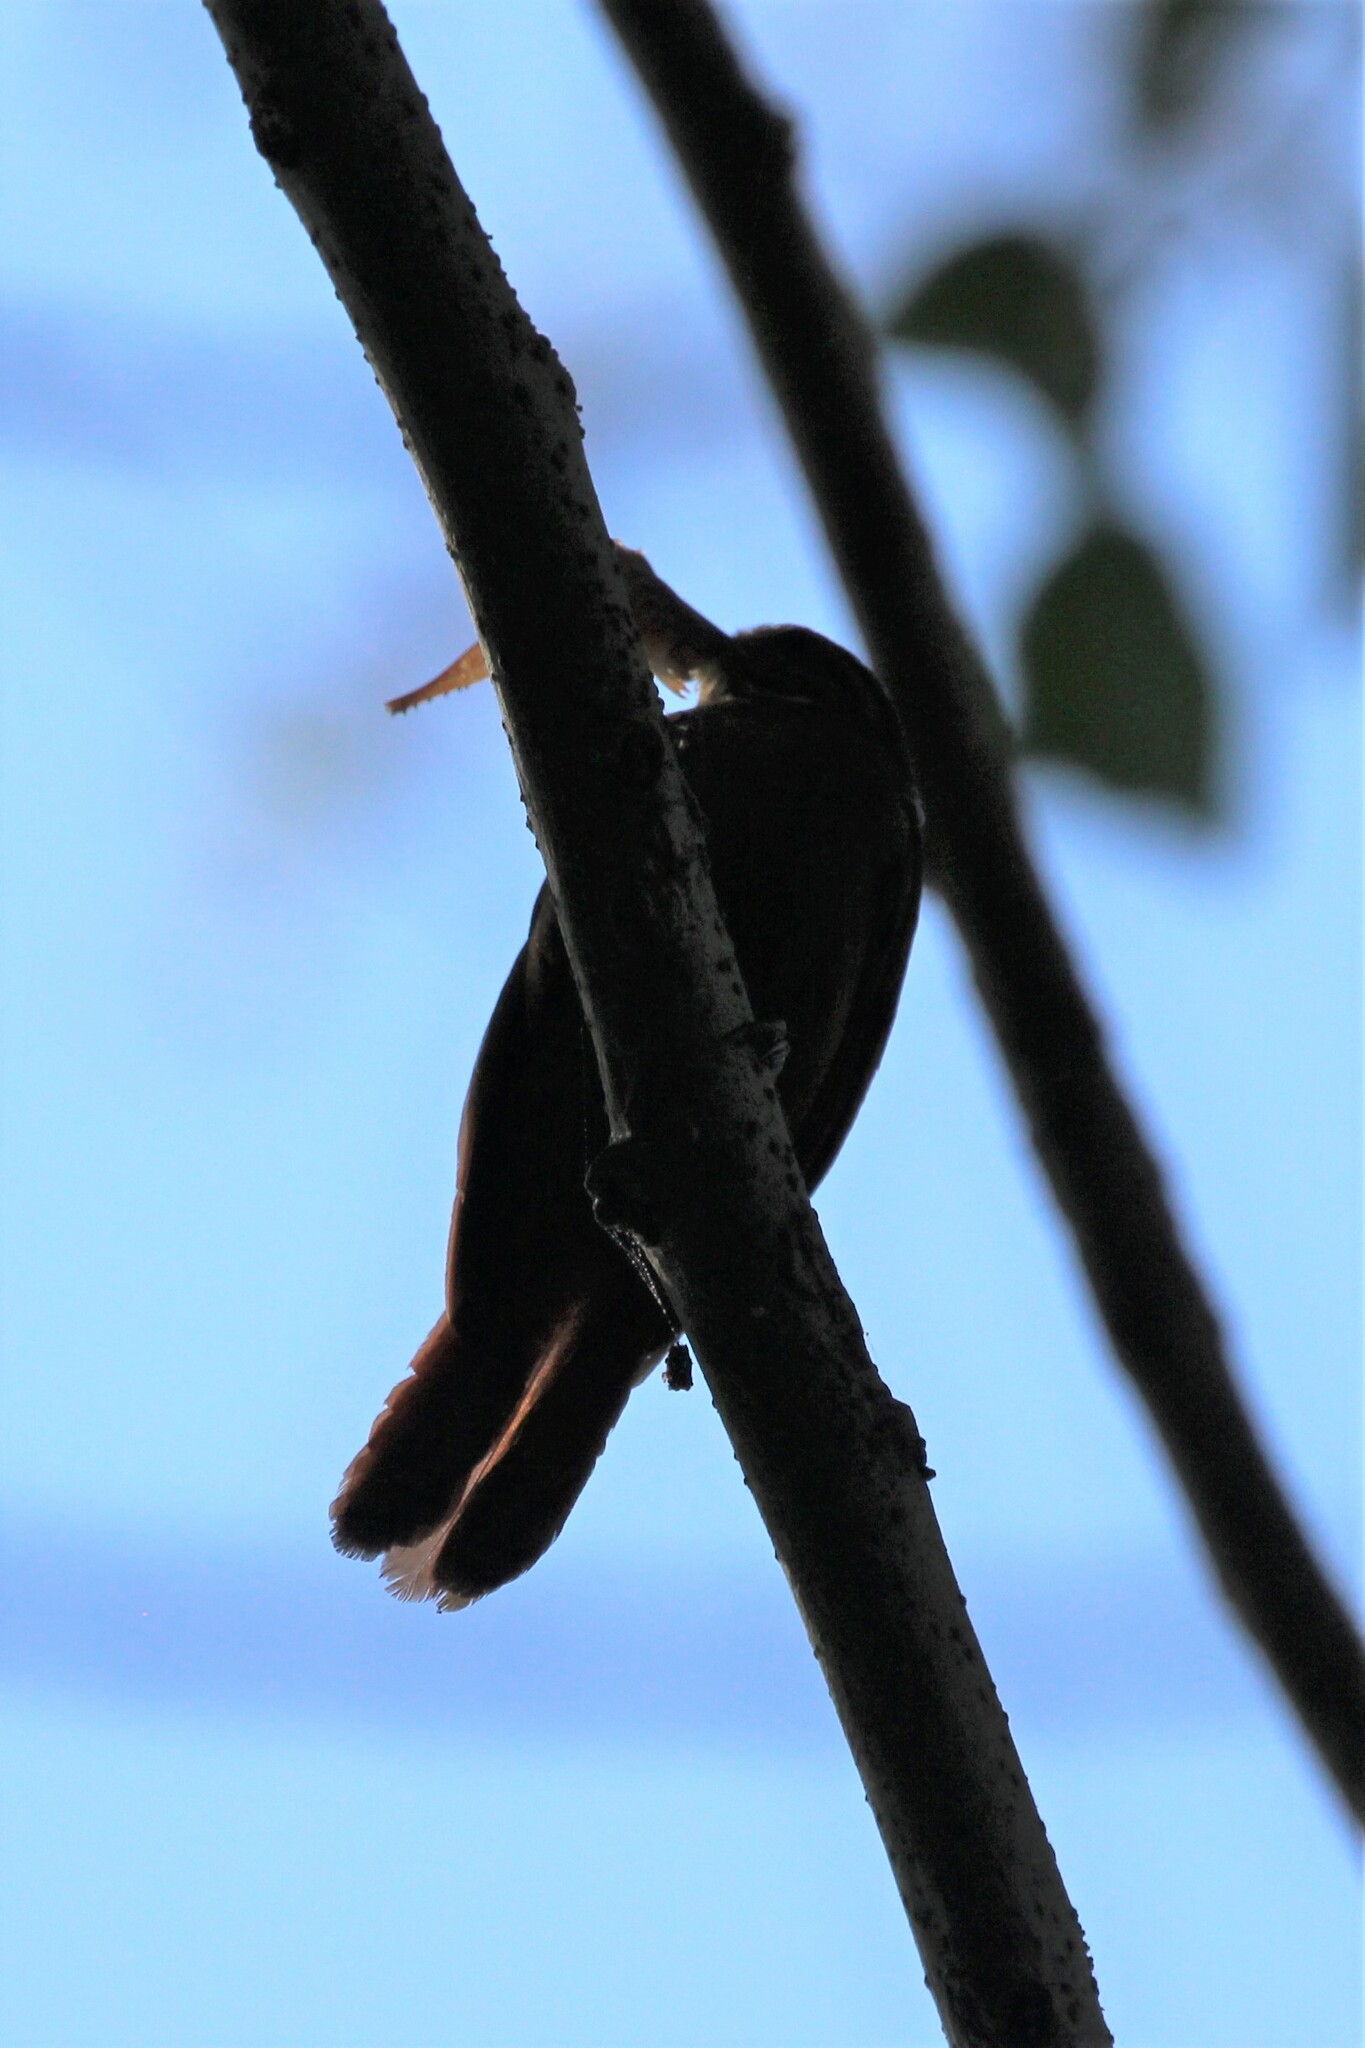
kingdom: Animalia
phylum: Chordata
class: Aves
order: Passeriformes
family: Furnariidae
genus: Xenops
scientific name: Xenops minutus
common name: Plain xenops
